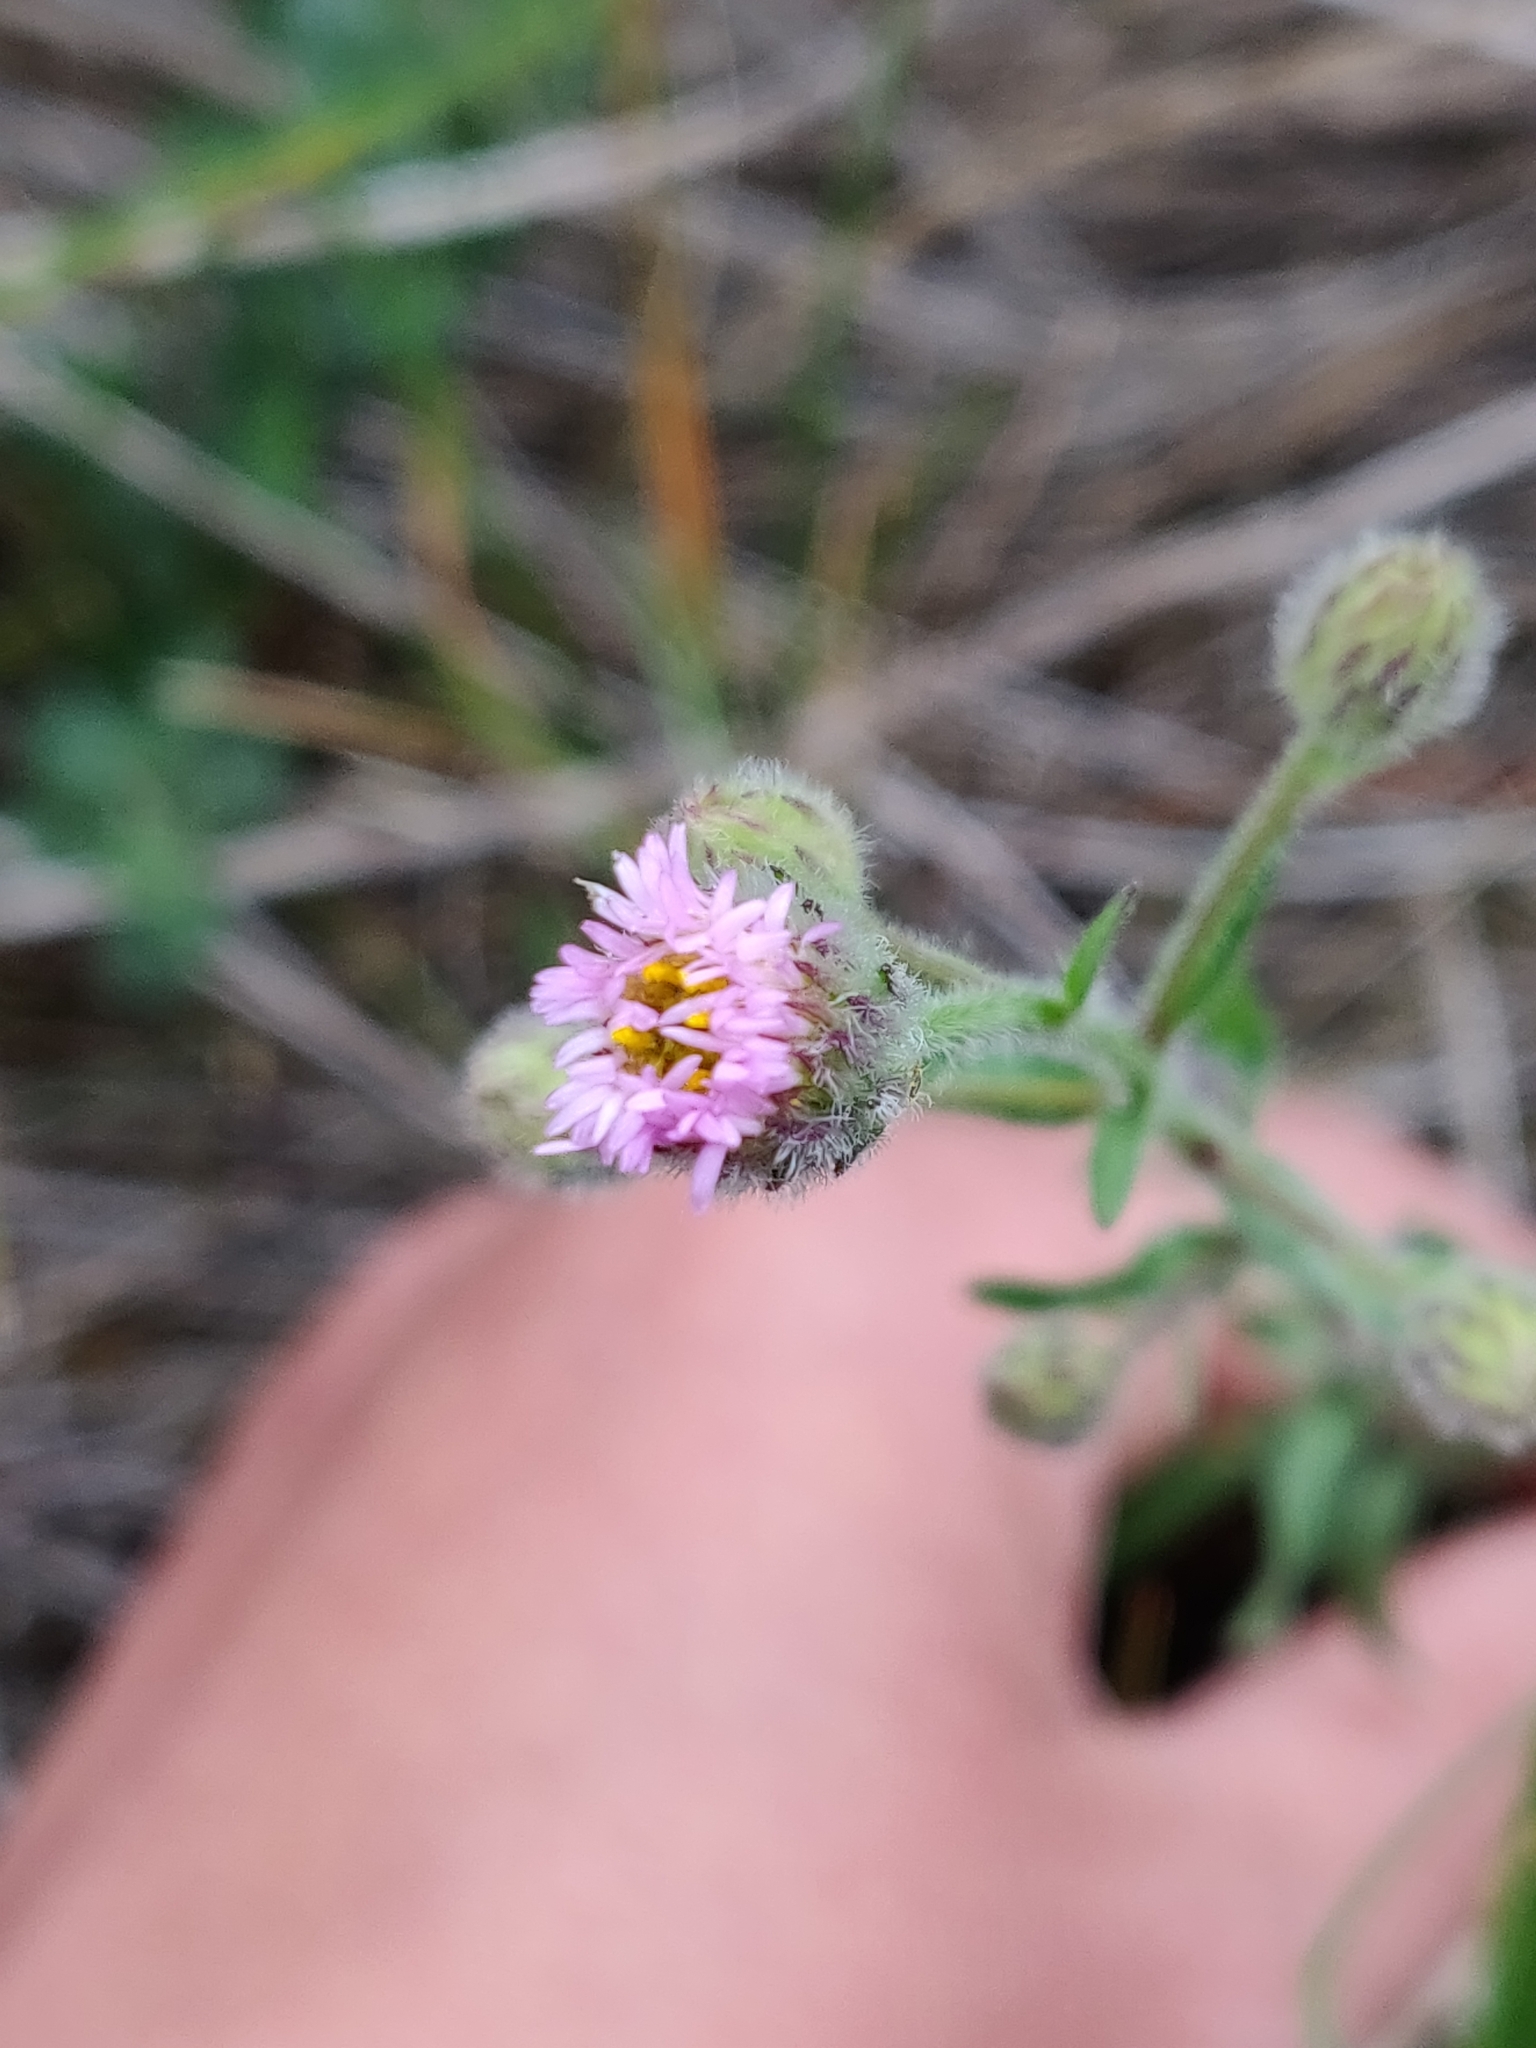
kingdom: Plantae
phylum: Tracheophyta
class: Magnoliopsida
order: Asterales
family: Asteraceae
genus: Erigeron
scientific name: Erigeron acris
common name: Blue fleabane
